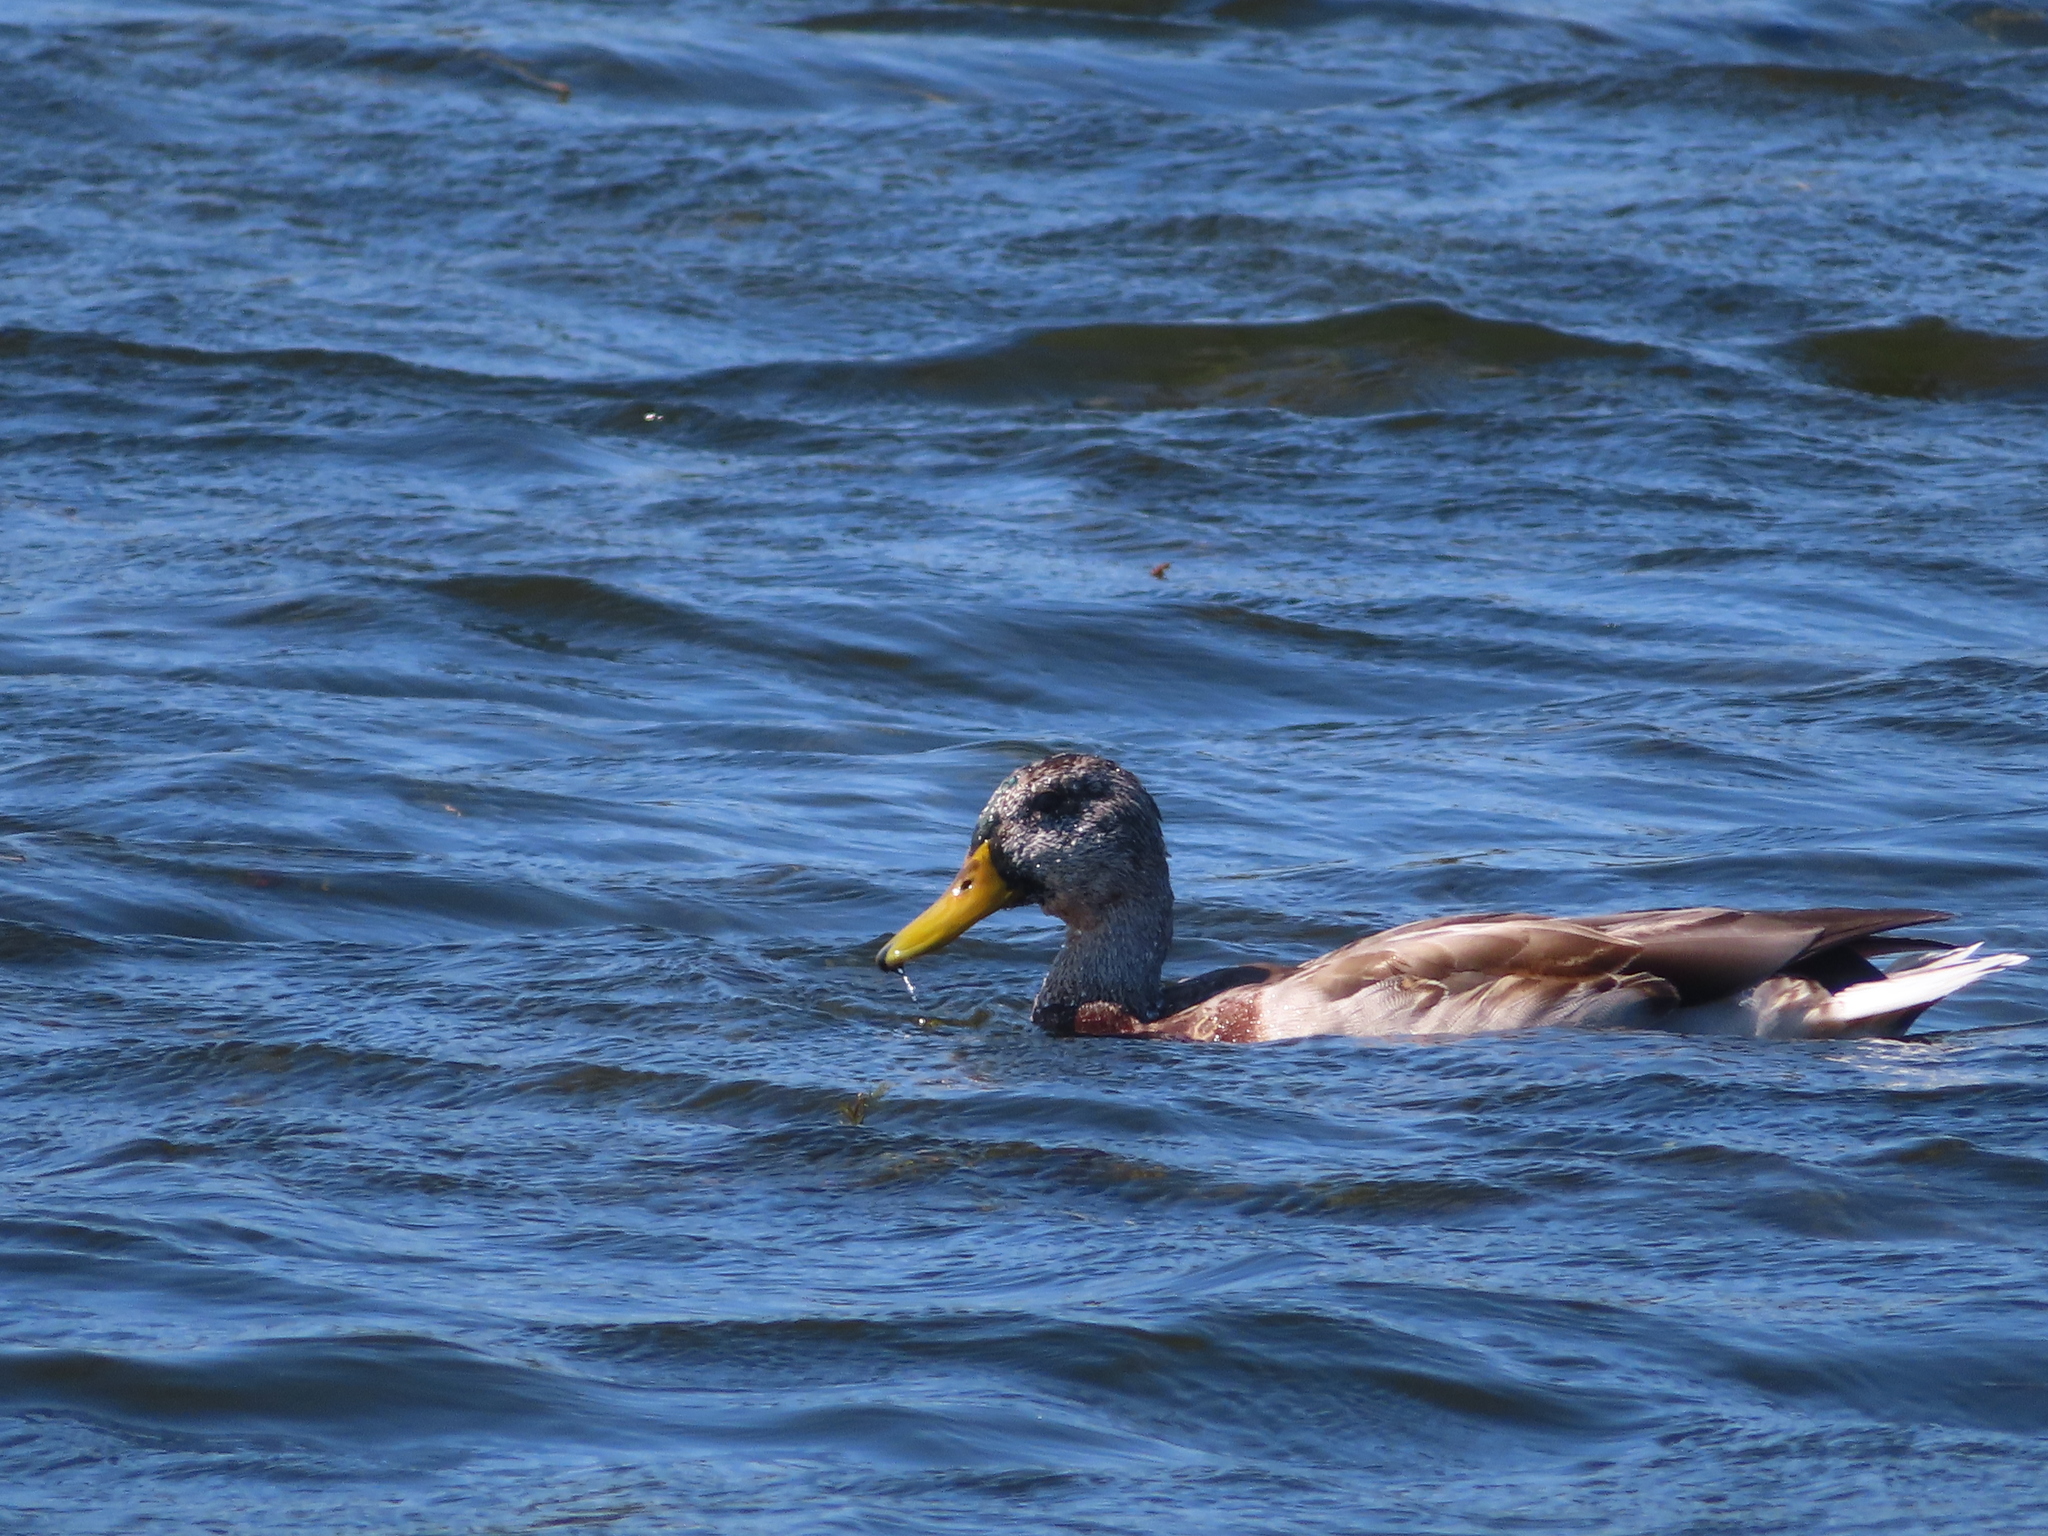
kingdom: Animalia
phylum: Chordata
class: Aves
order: Anseriformes
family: Anatidae
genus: Anas
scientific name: Anas platyrhynchos
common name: Mallard
